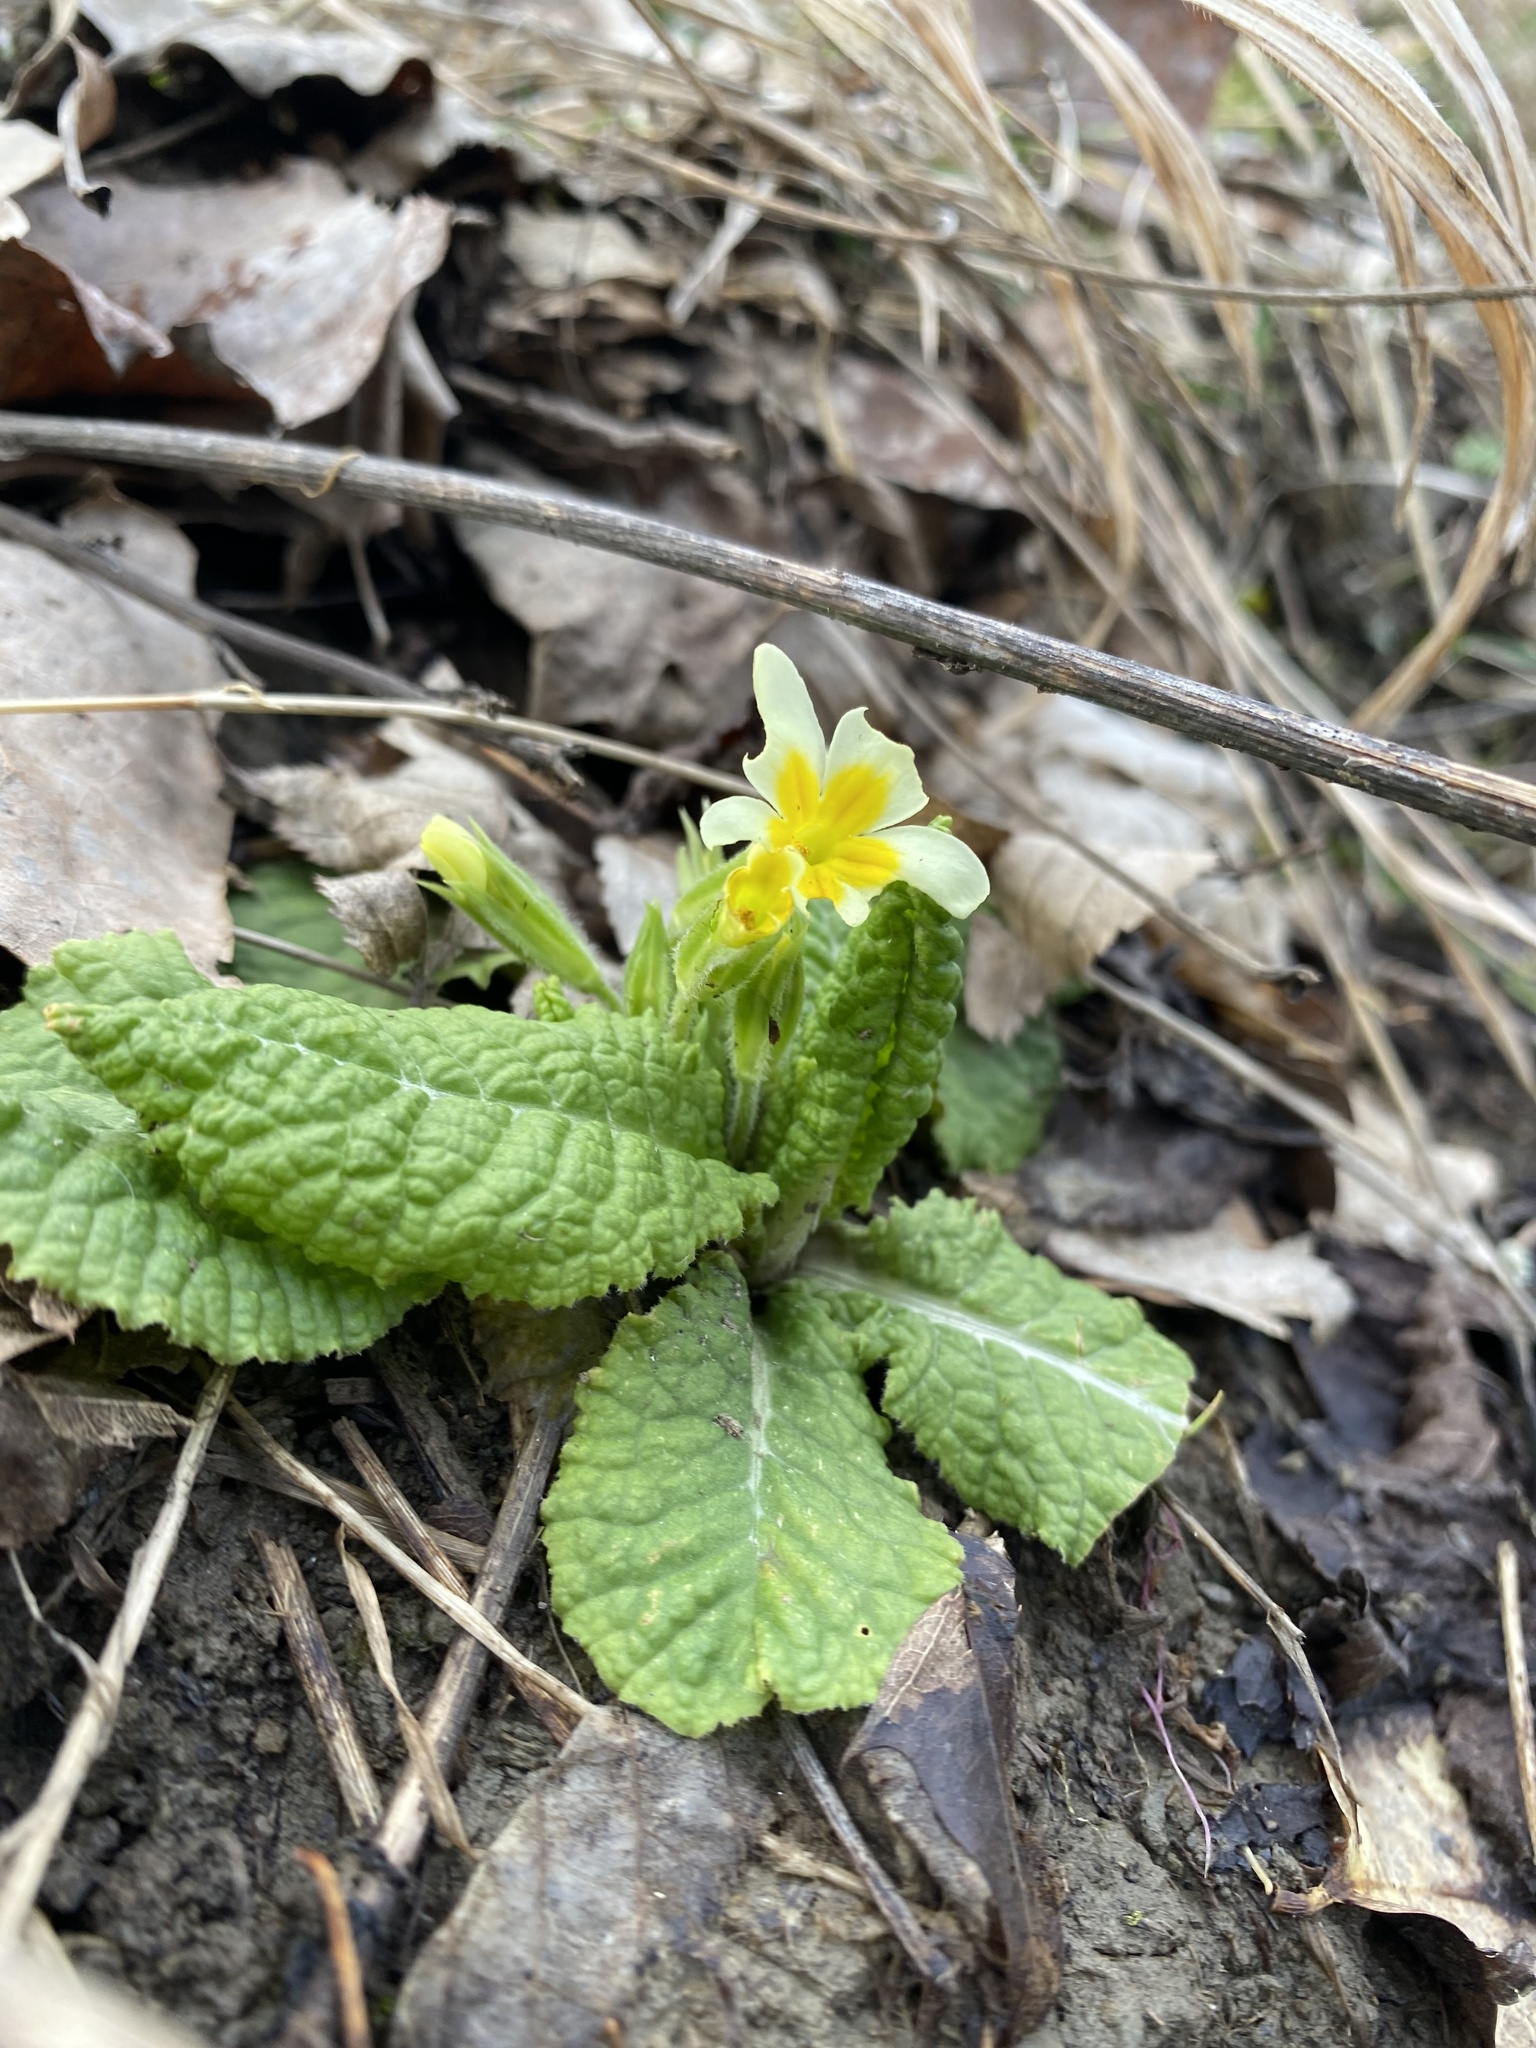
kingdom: Plantae
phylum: Tracheophyta
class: Magnoliopsida
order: Ericales
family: Primulaceae
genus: Primula
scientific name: Primula vulgaris
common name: Primrose
